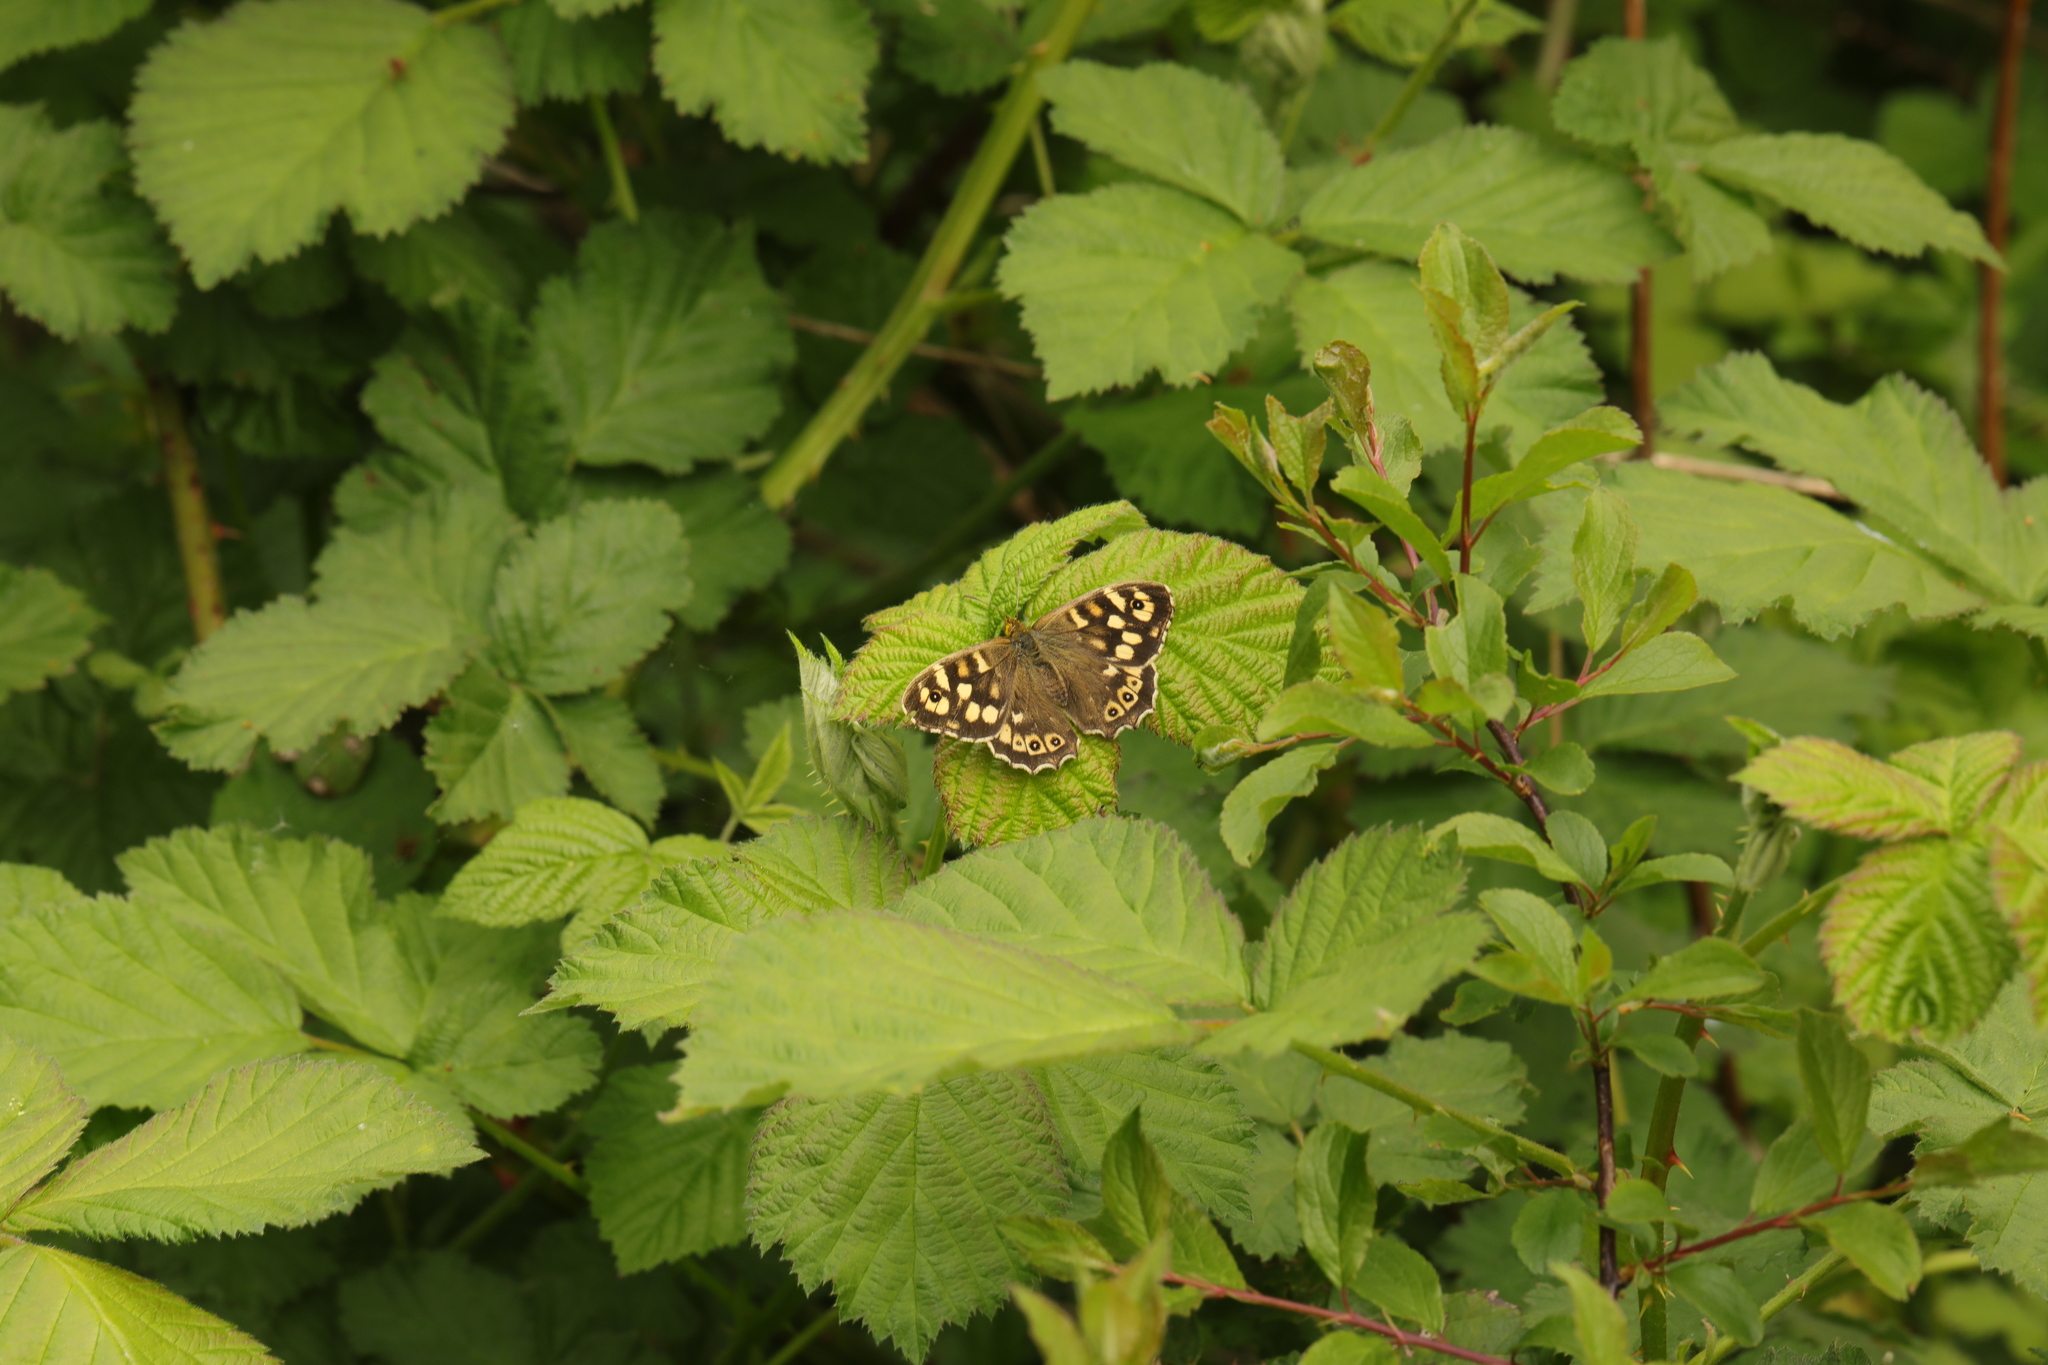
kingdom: Animalia
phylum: Arthropoda
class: Insecta
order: Lepidoptera
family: Nymphalidae
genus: Pararge
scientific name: Pararge aegeria
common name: Speckled wood
